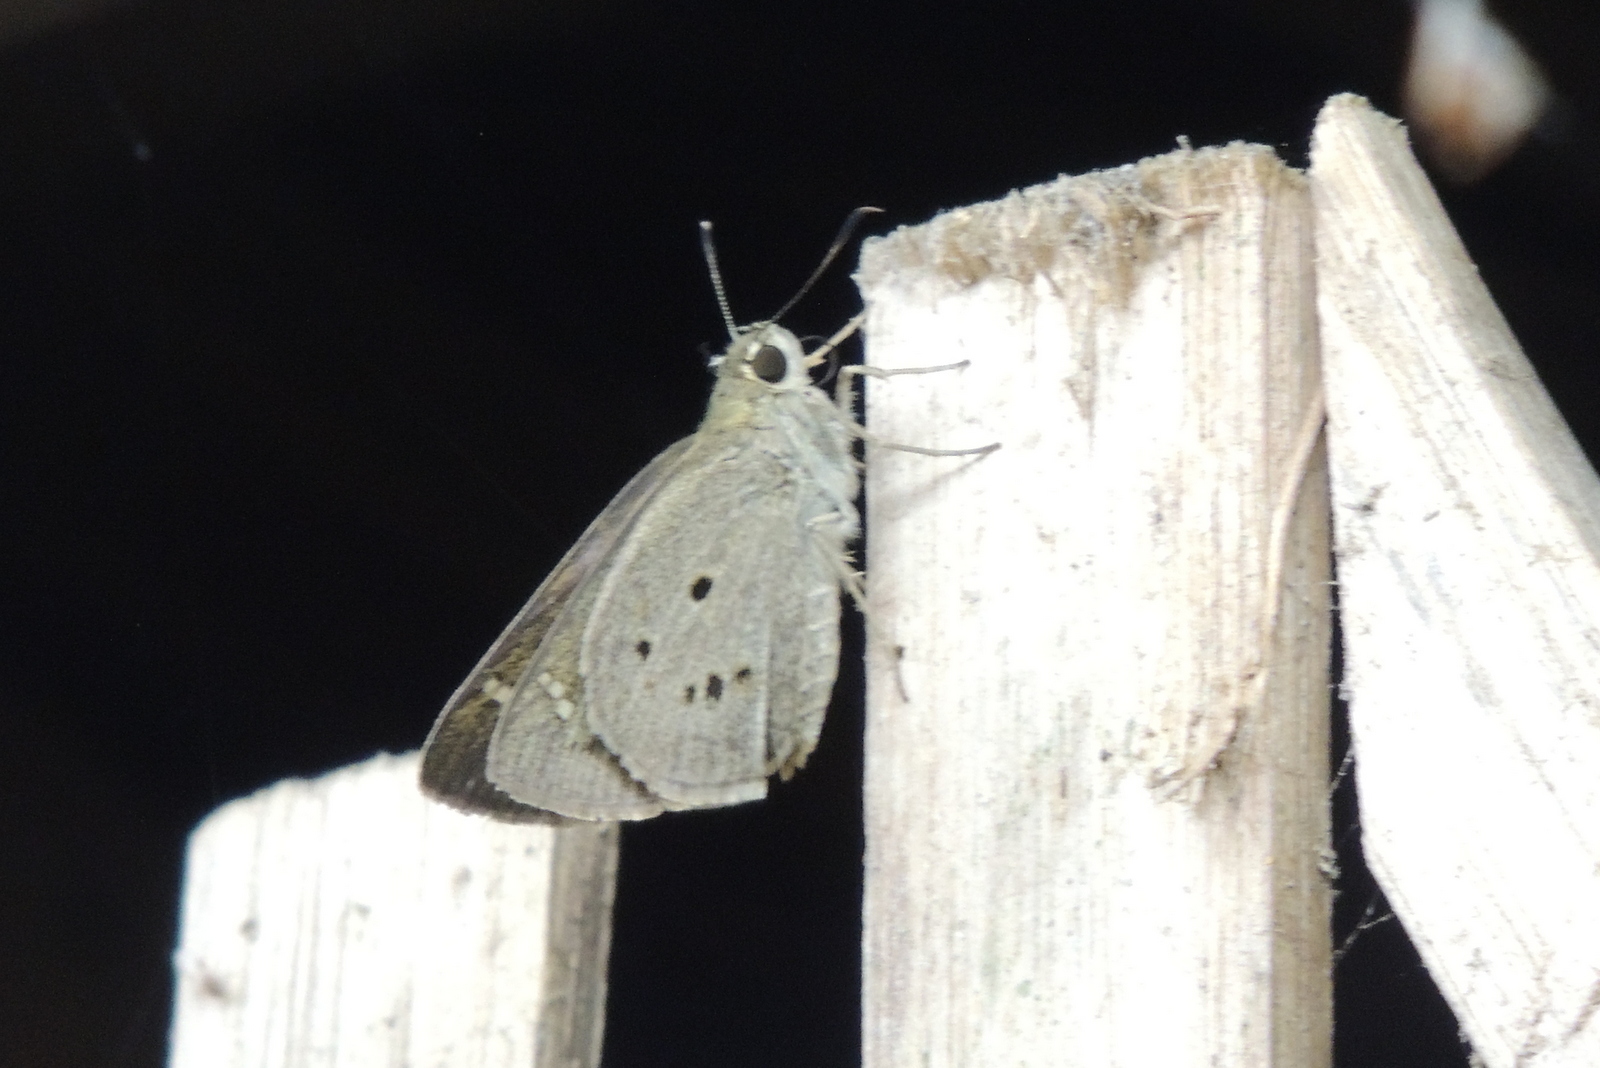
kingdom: Animalia
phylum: Arthropoda
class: Insecta
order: Lepidoptera
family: Hesperiidae
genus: Suastus
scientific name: Suastus gremius
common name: Indian palm bob
